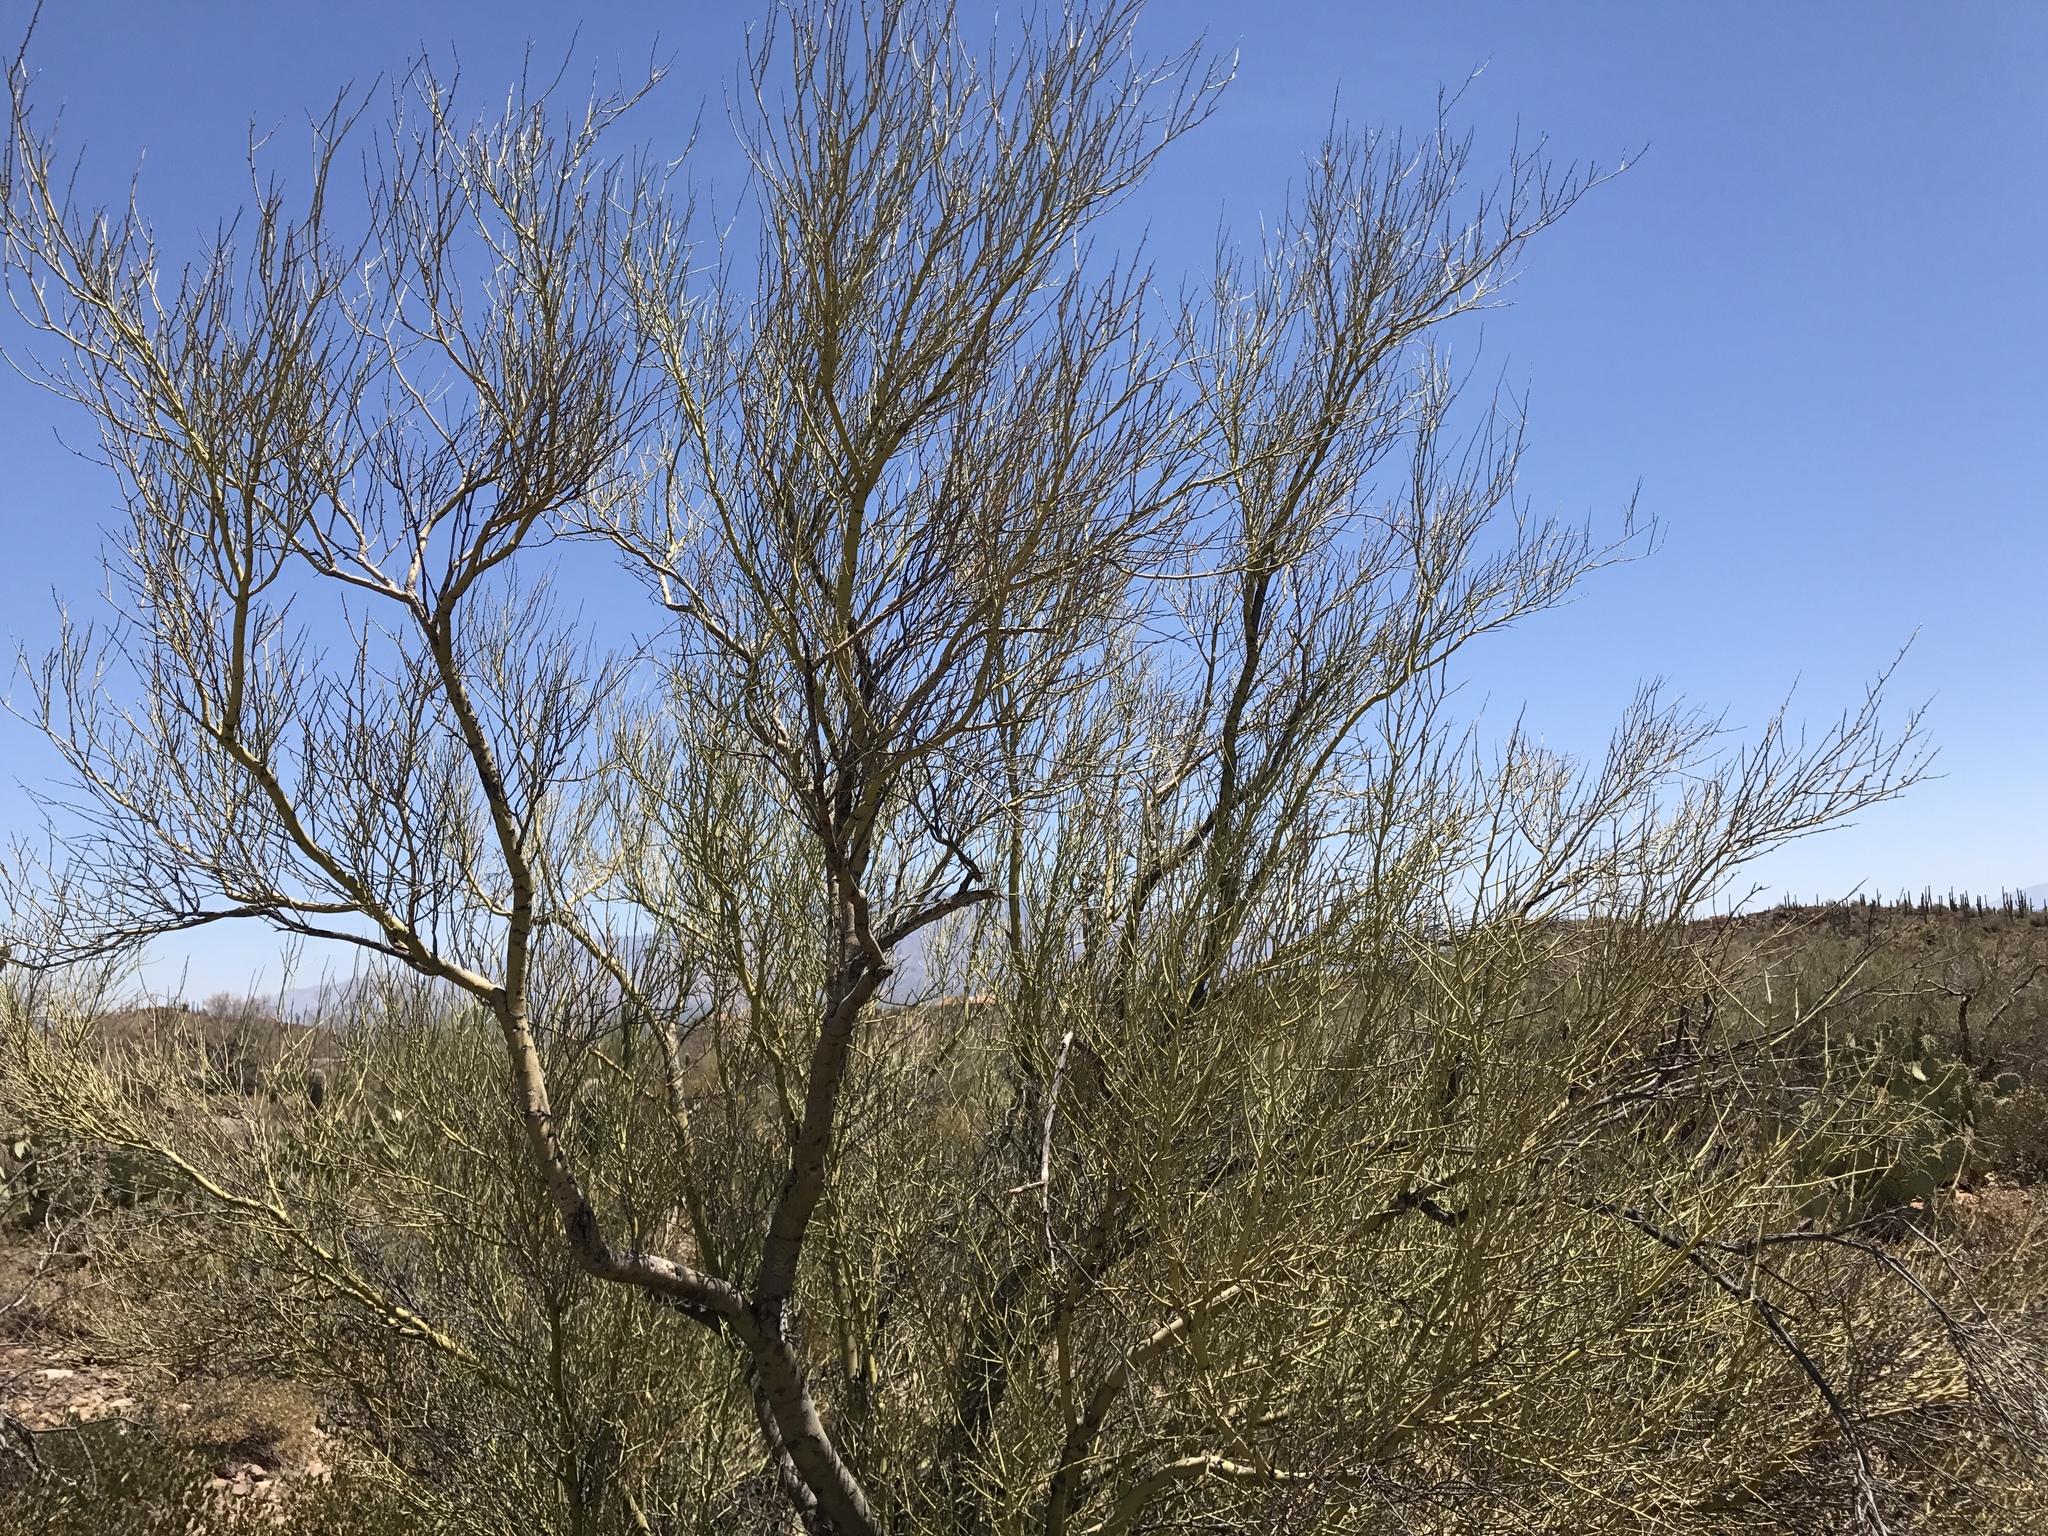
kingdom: Plantae
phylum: Tracheophyta
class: Magnoliopsida
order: Fabales
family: Fabaceae
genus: Parkinsonia
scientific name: Parkinsonia microphylla
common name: Yellow paloverde
